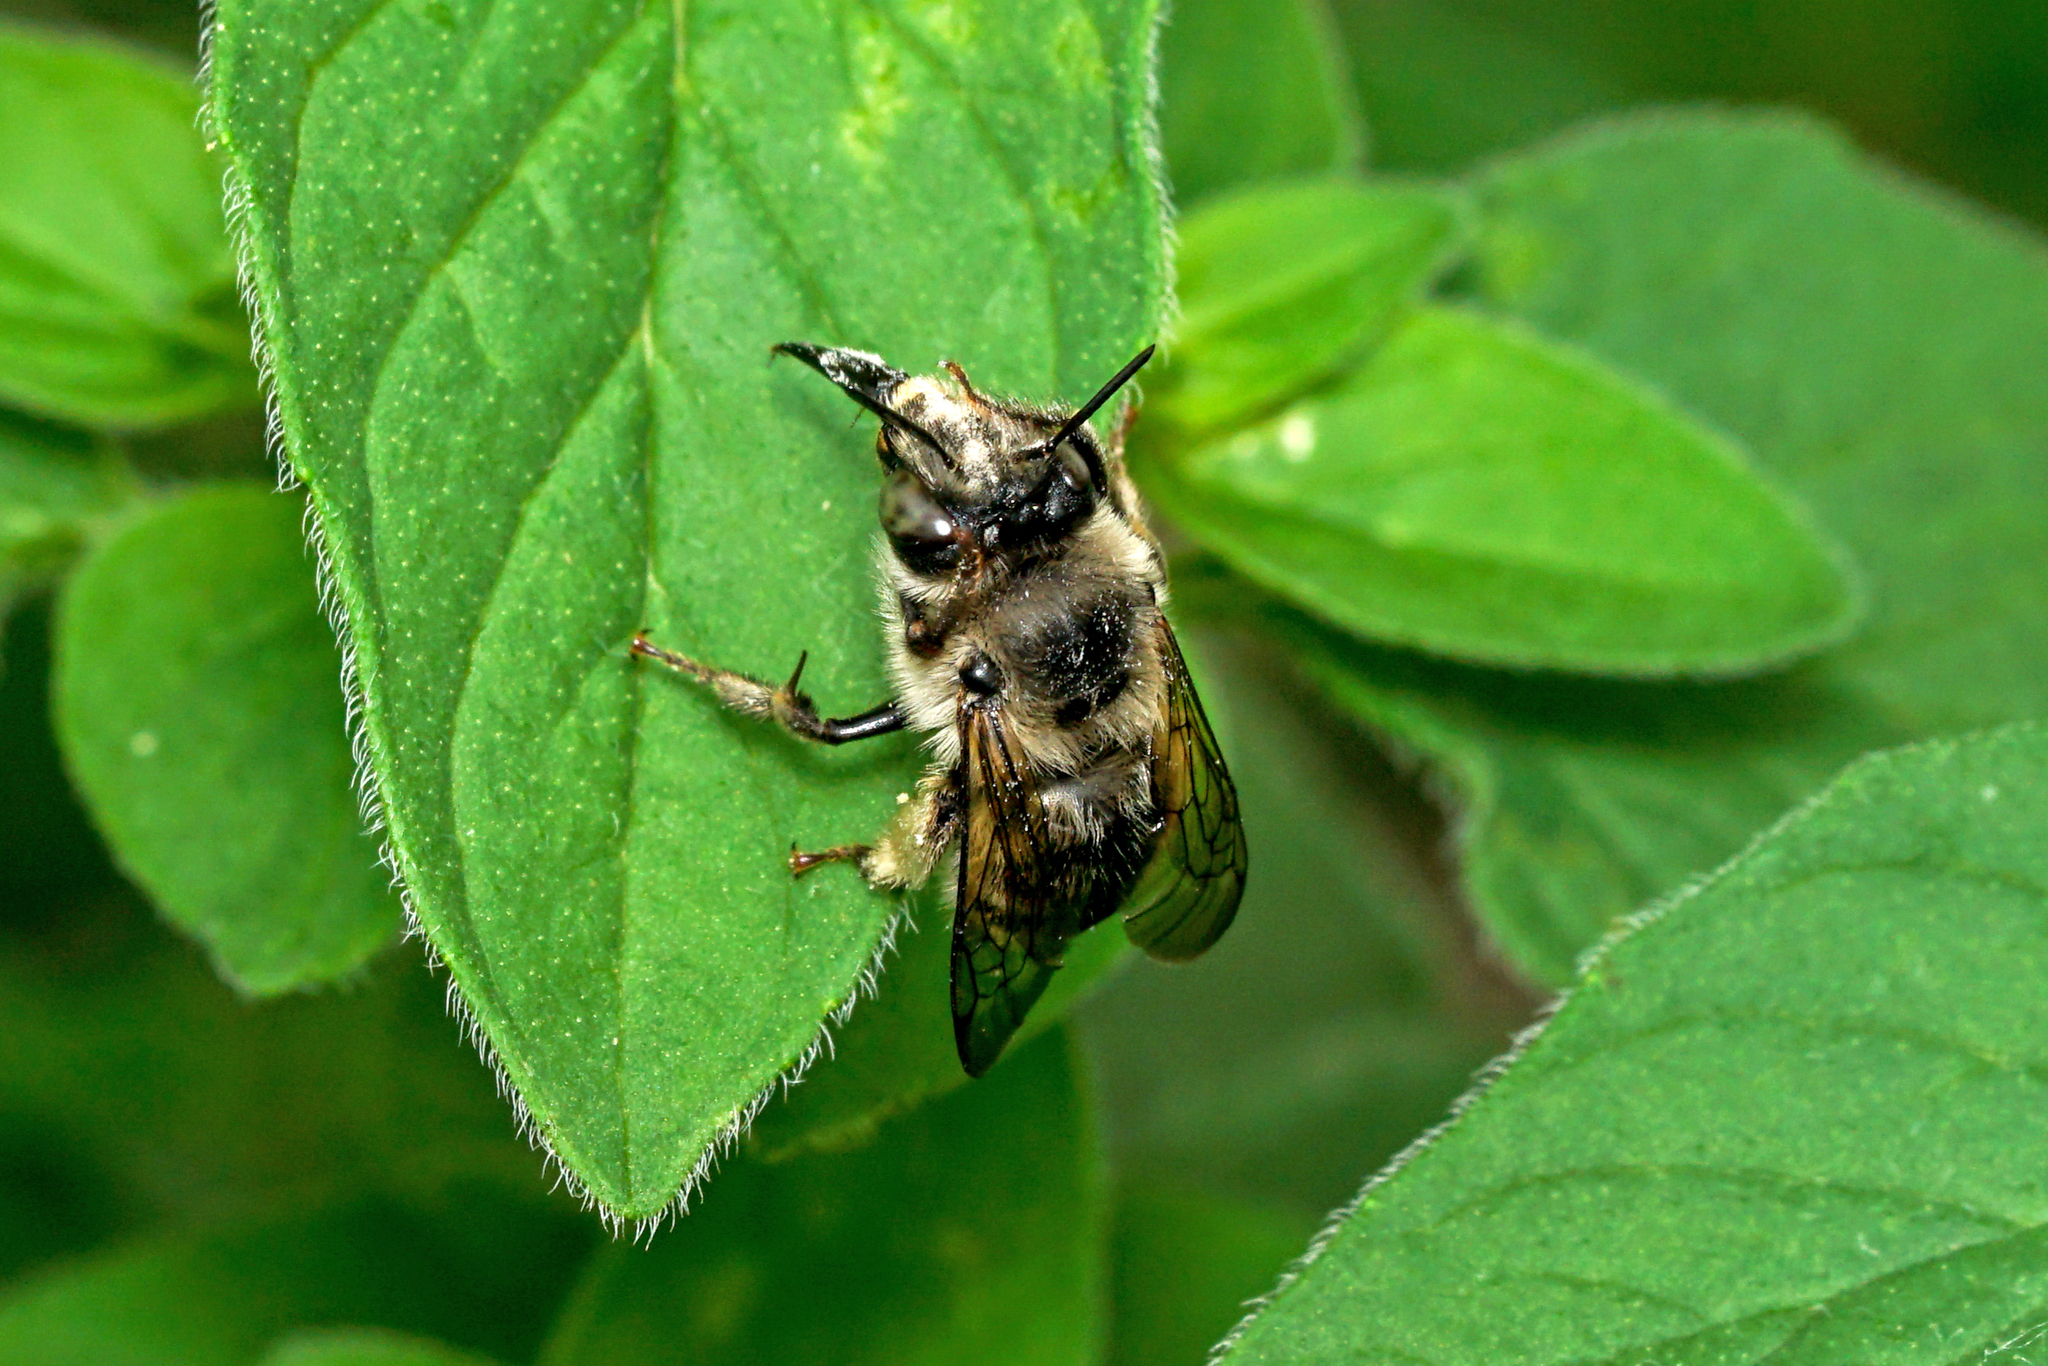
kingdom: Animalia
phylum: Arthropoda
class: Insecta
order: Hymenoptera
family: Apidae
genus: Anthophora
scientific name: Anthophora terminalis
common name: Orange-tipped wood-digger bee
